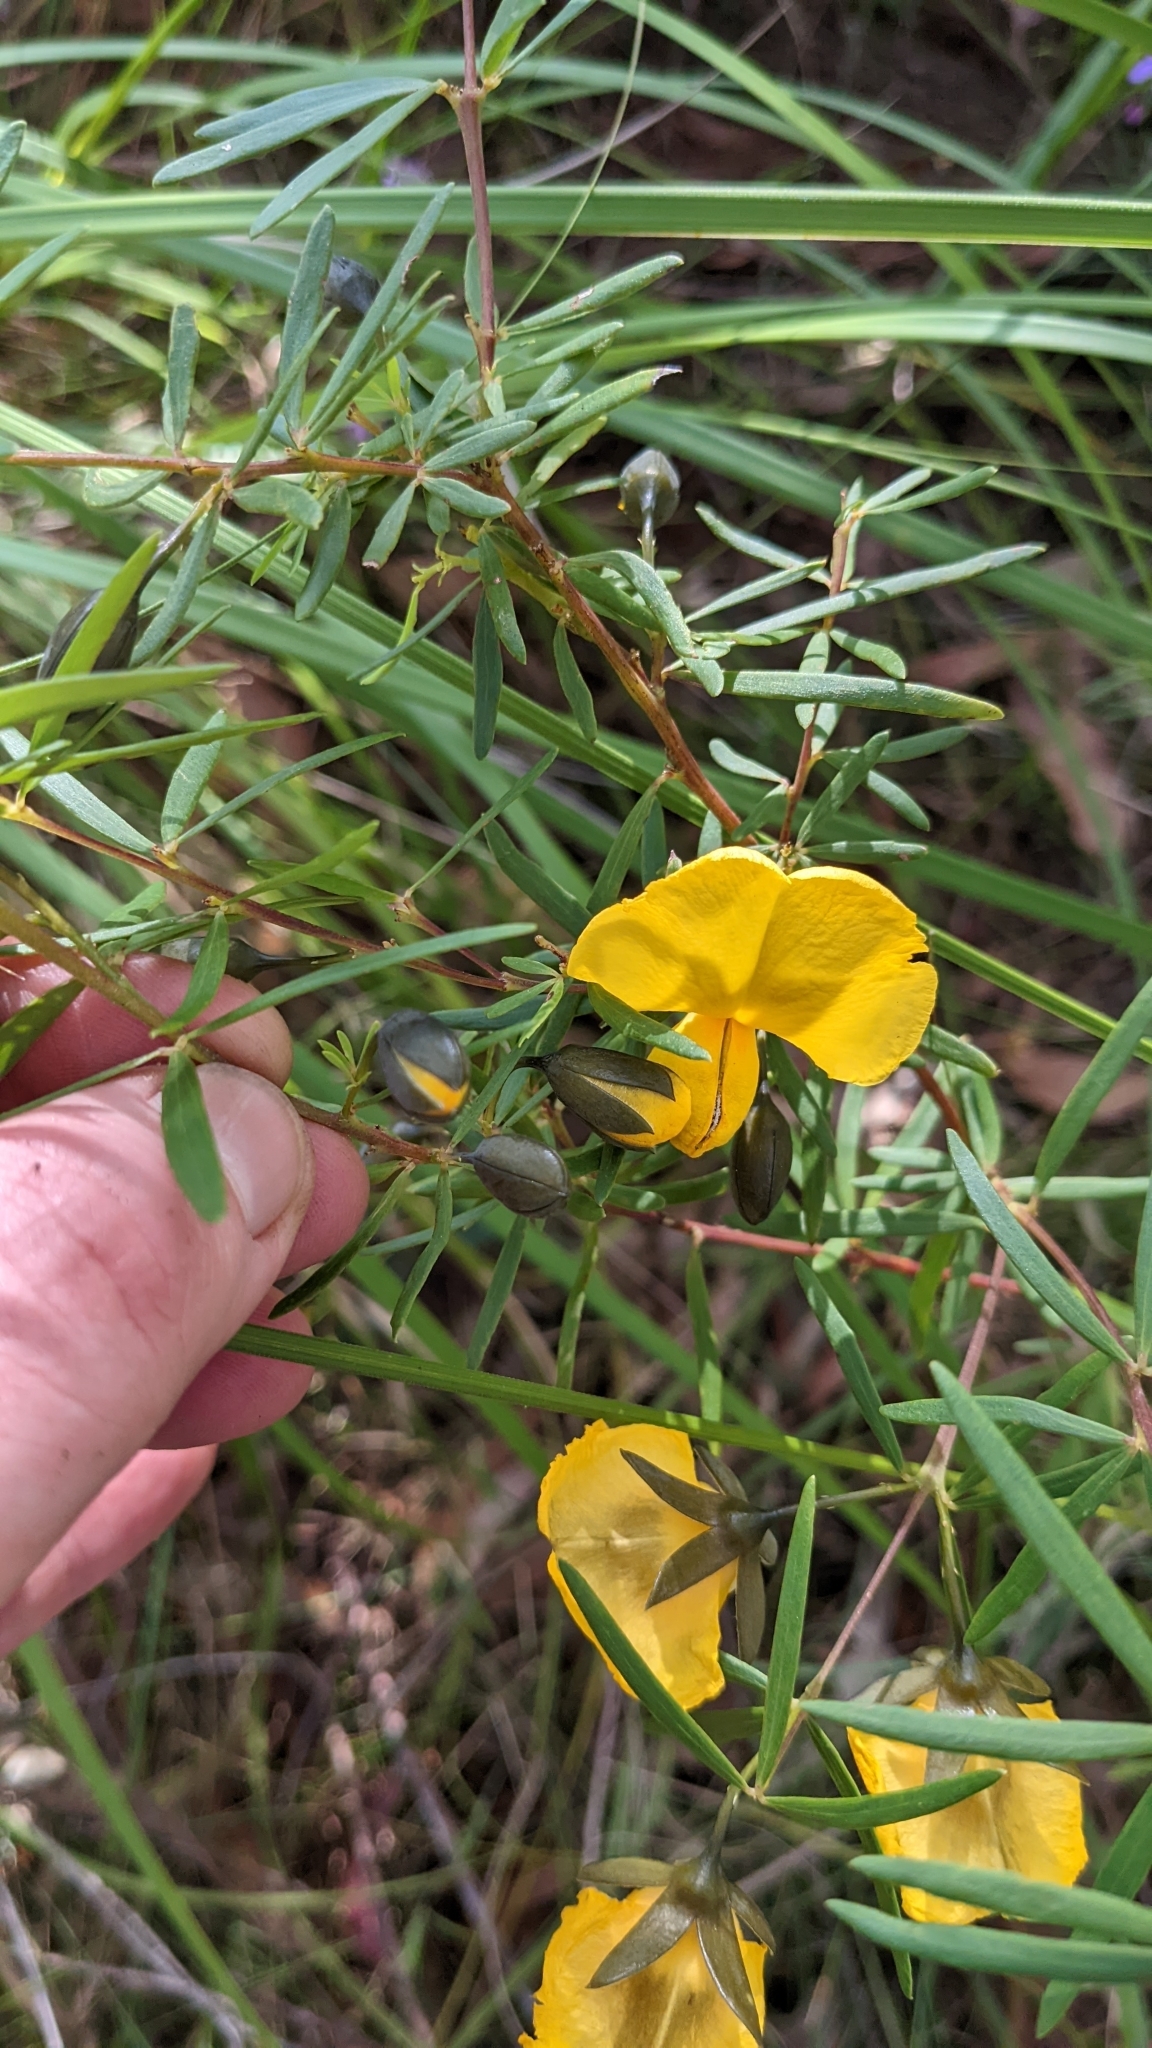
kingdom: Plantae
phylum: Tracheophyta
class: Magnoliopsida
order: Fabales
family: Fabaceae
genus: Gompholobium
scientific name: Gompholobium latifolium
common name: Broadleaf wedge-pea
